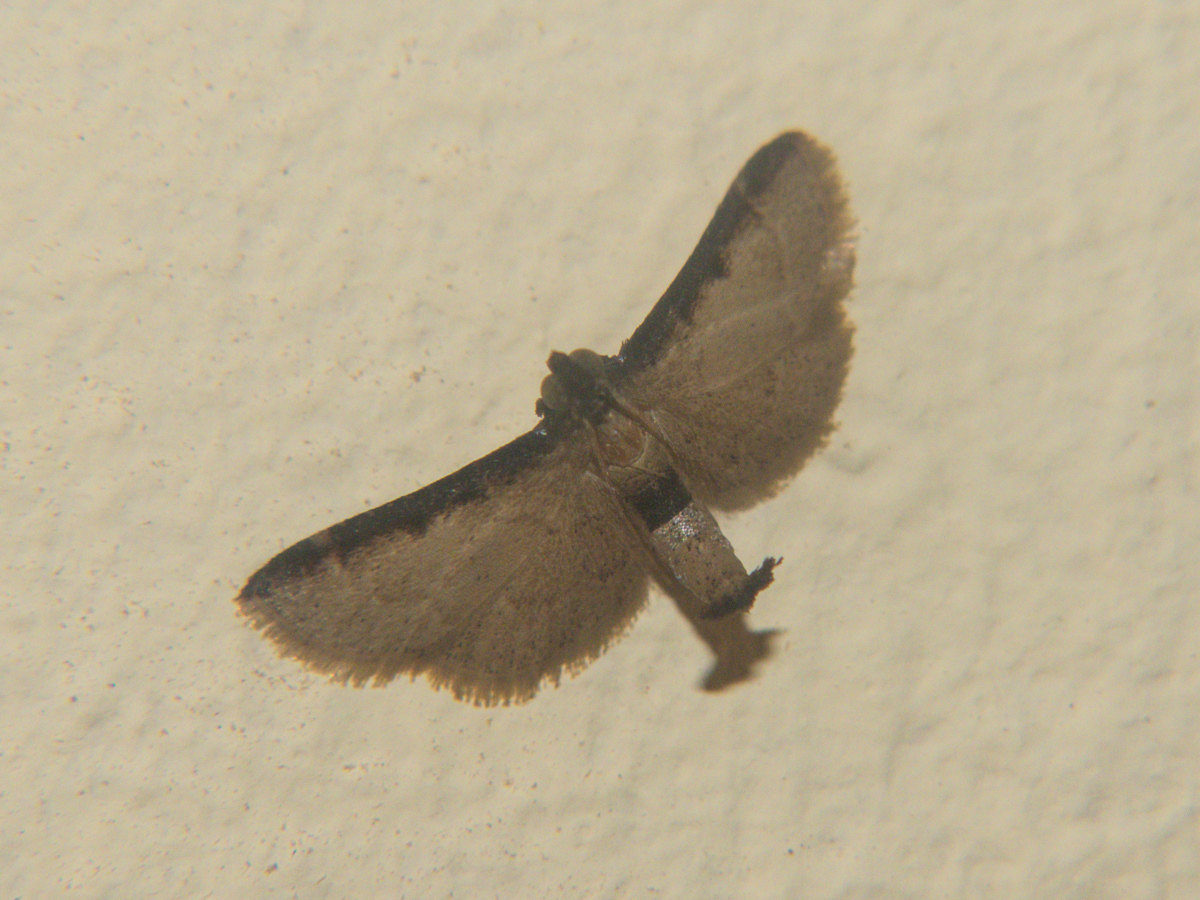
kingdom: Animalia
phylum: Arthropoda
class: Insecta
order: Lepidoptera
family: Pyralidae
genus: Hypsopygia
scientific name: Hypsopygia nigrivitta
